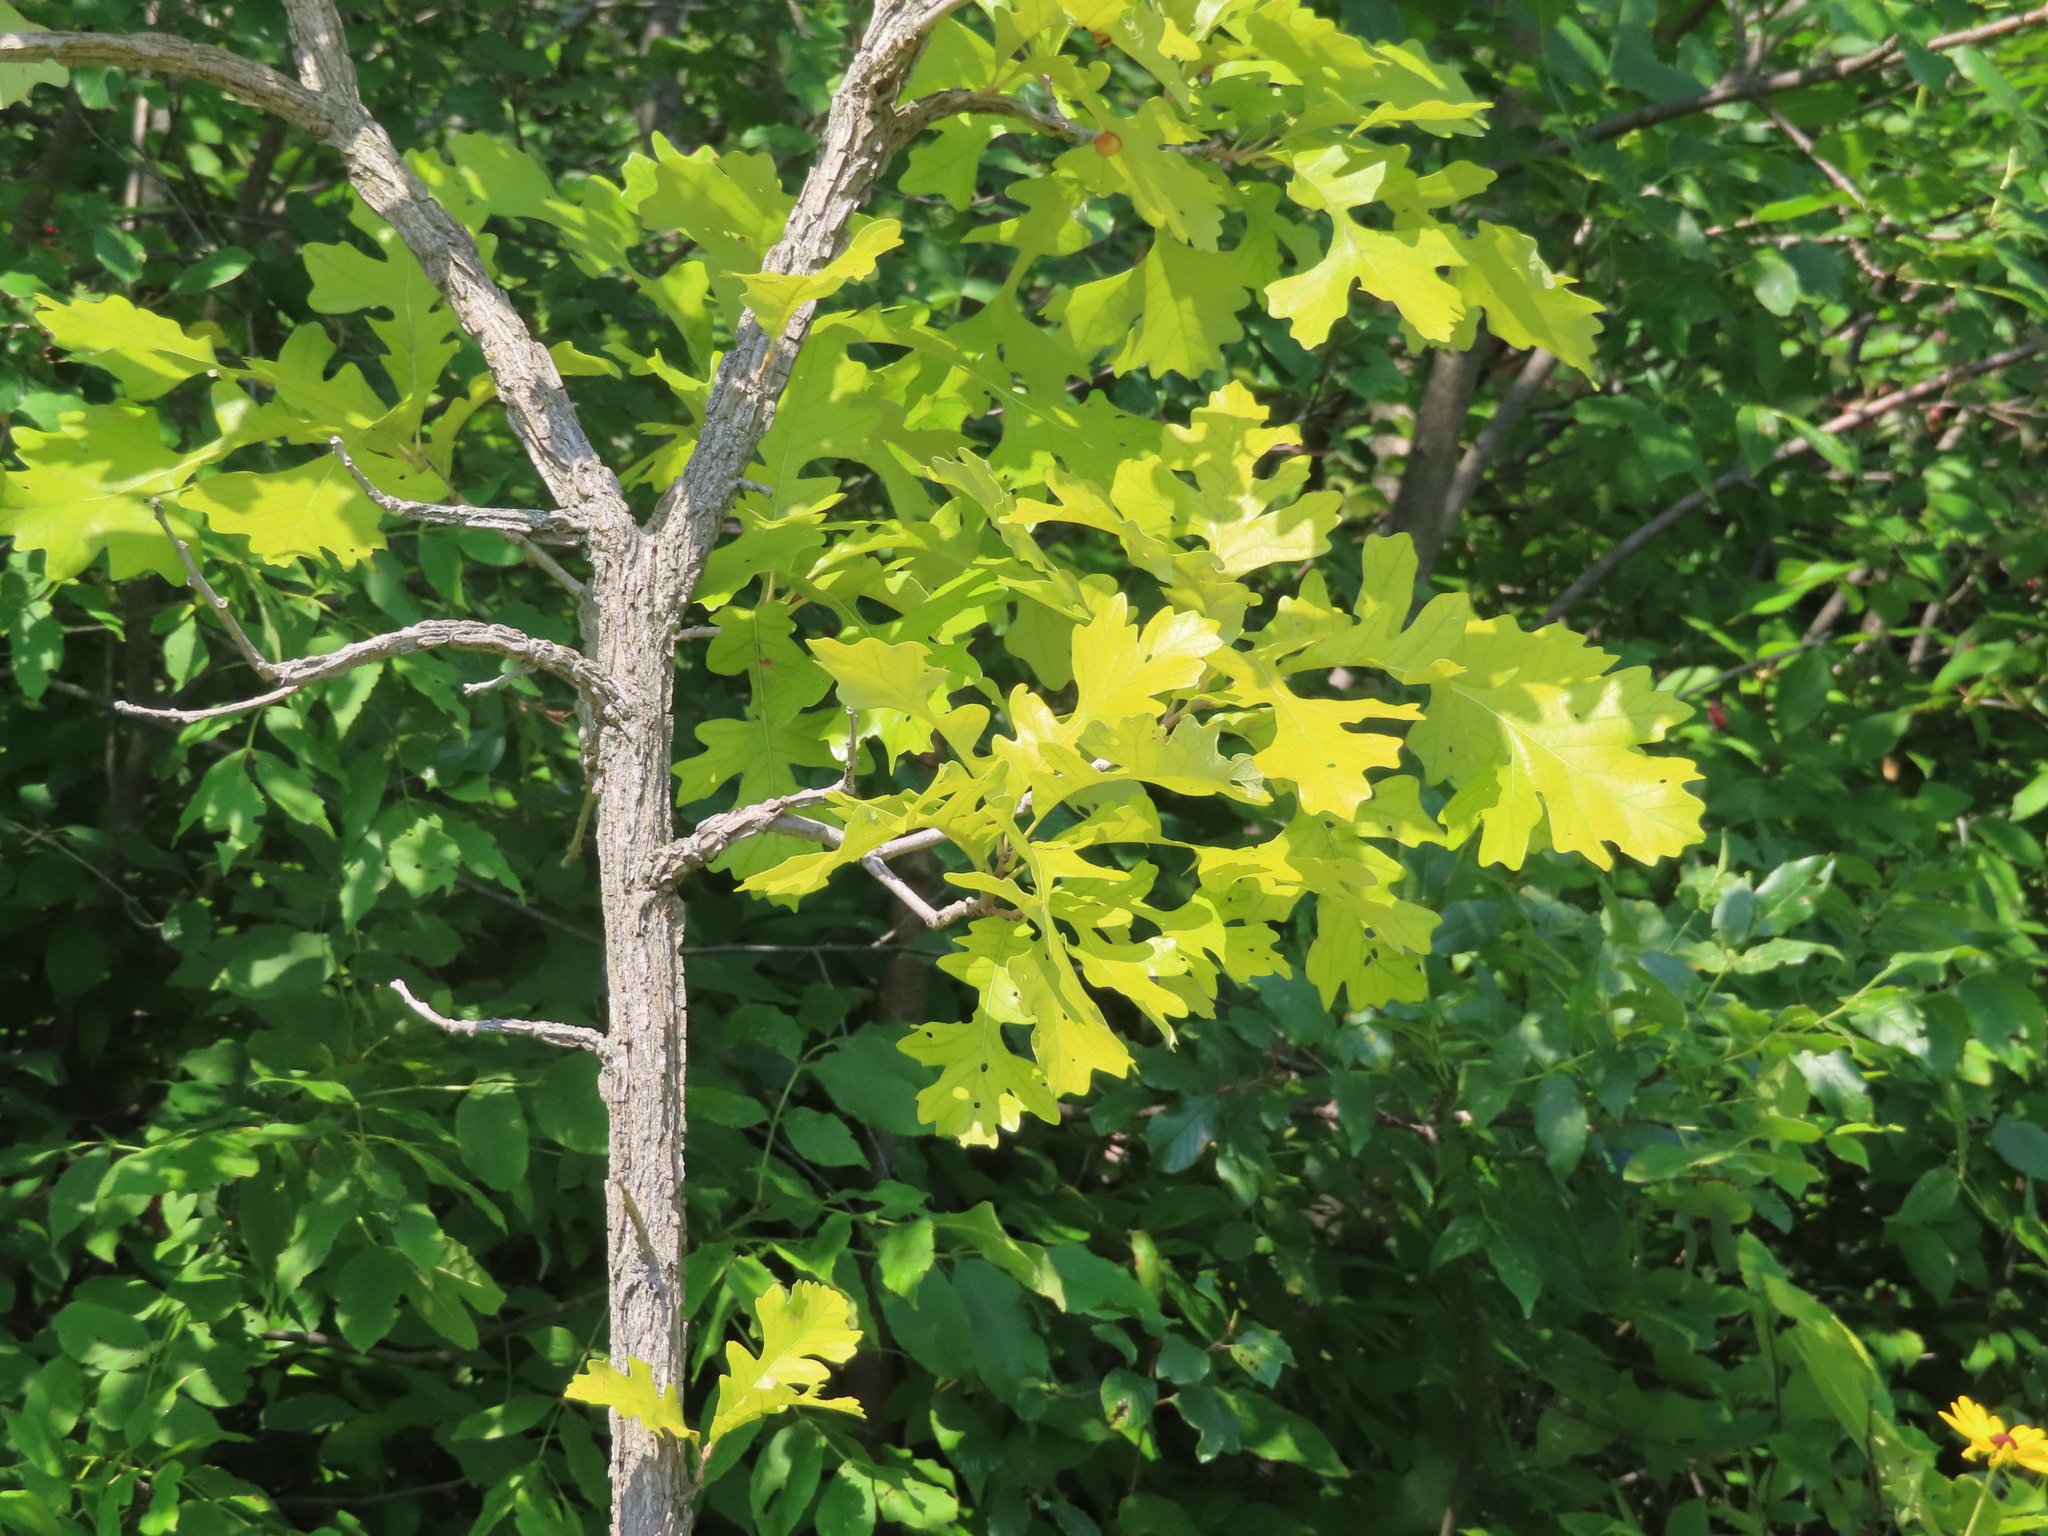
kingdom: Plantae
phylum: Tracheophyta
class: Magnoliopsida
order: Fagales
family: Fagaceae
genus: Quercus
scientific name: Quercus macrocarpa
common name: Bur oak
